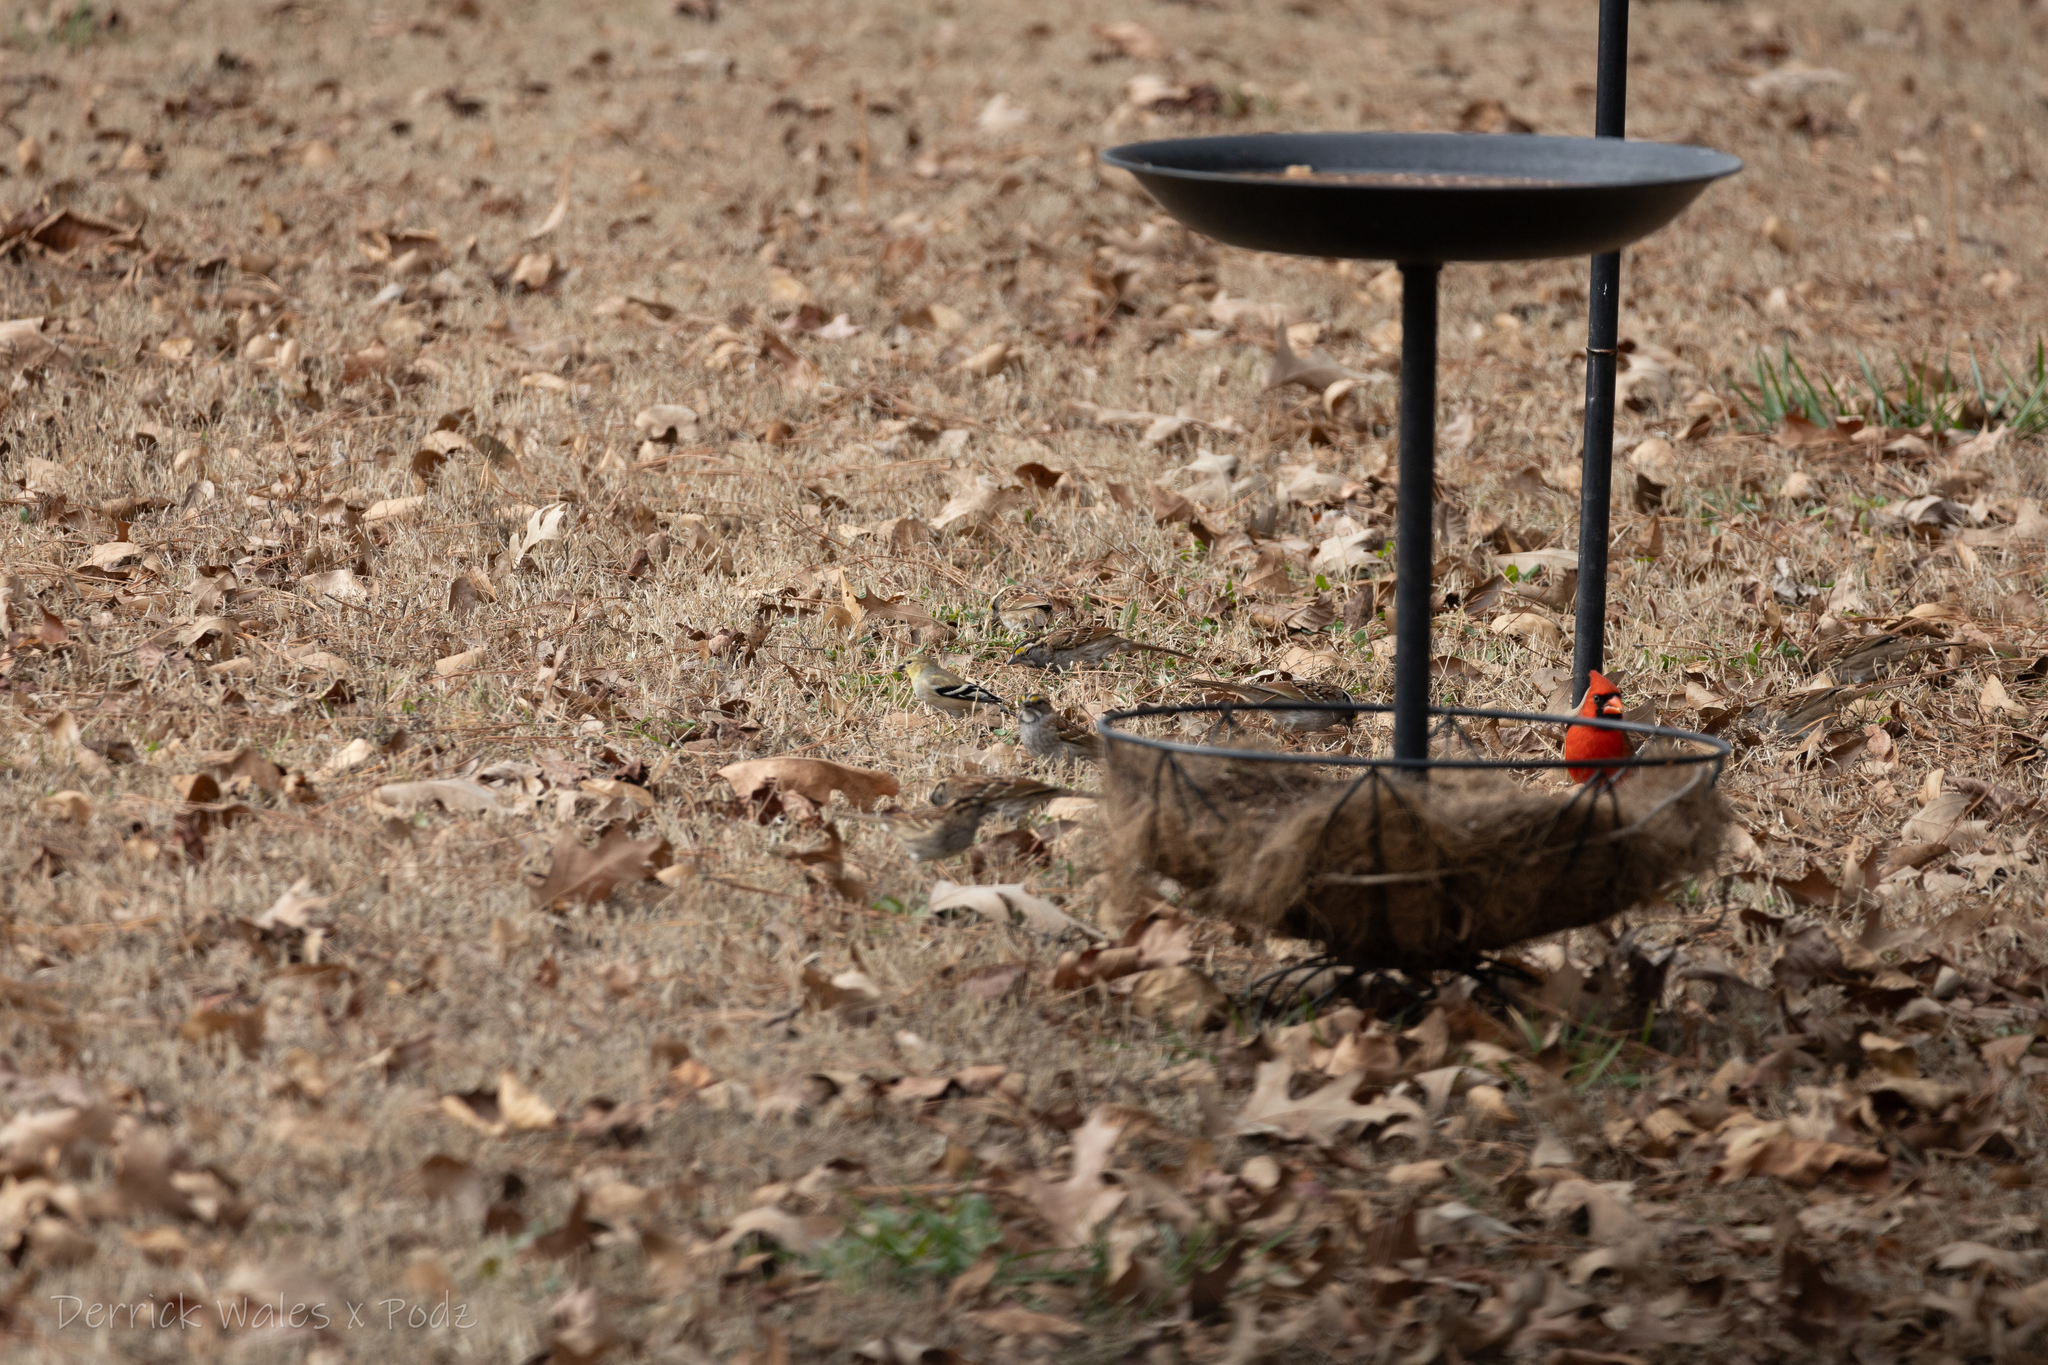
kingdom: Animalia
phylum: Chordata
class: Aves
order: Passeriformes
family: Fringillidae
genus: Spinus
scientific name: Spinus tristis
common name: American goldfinch
